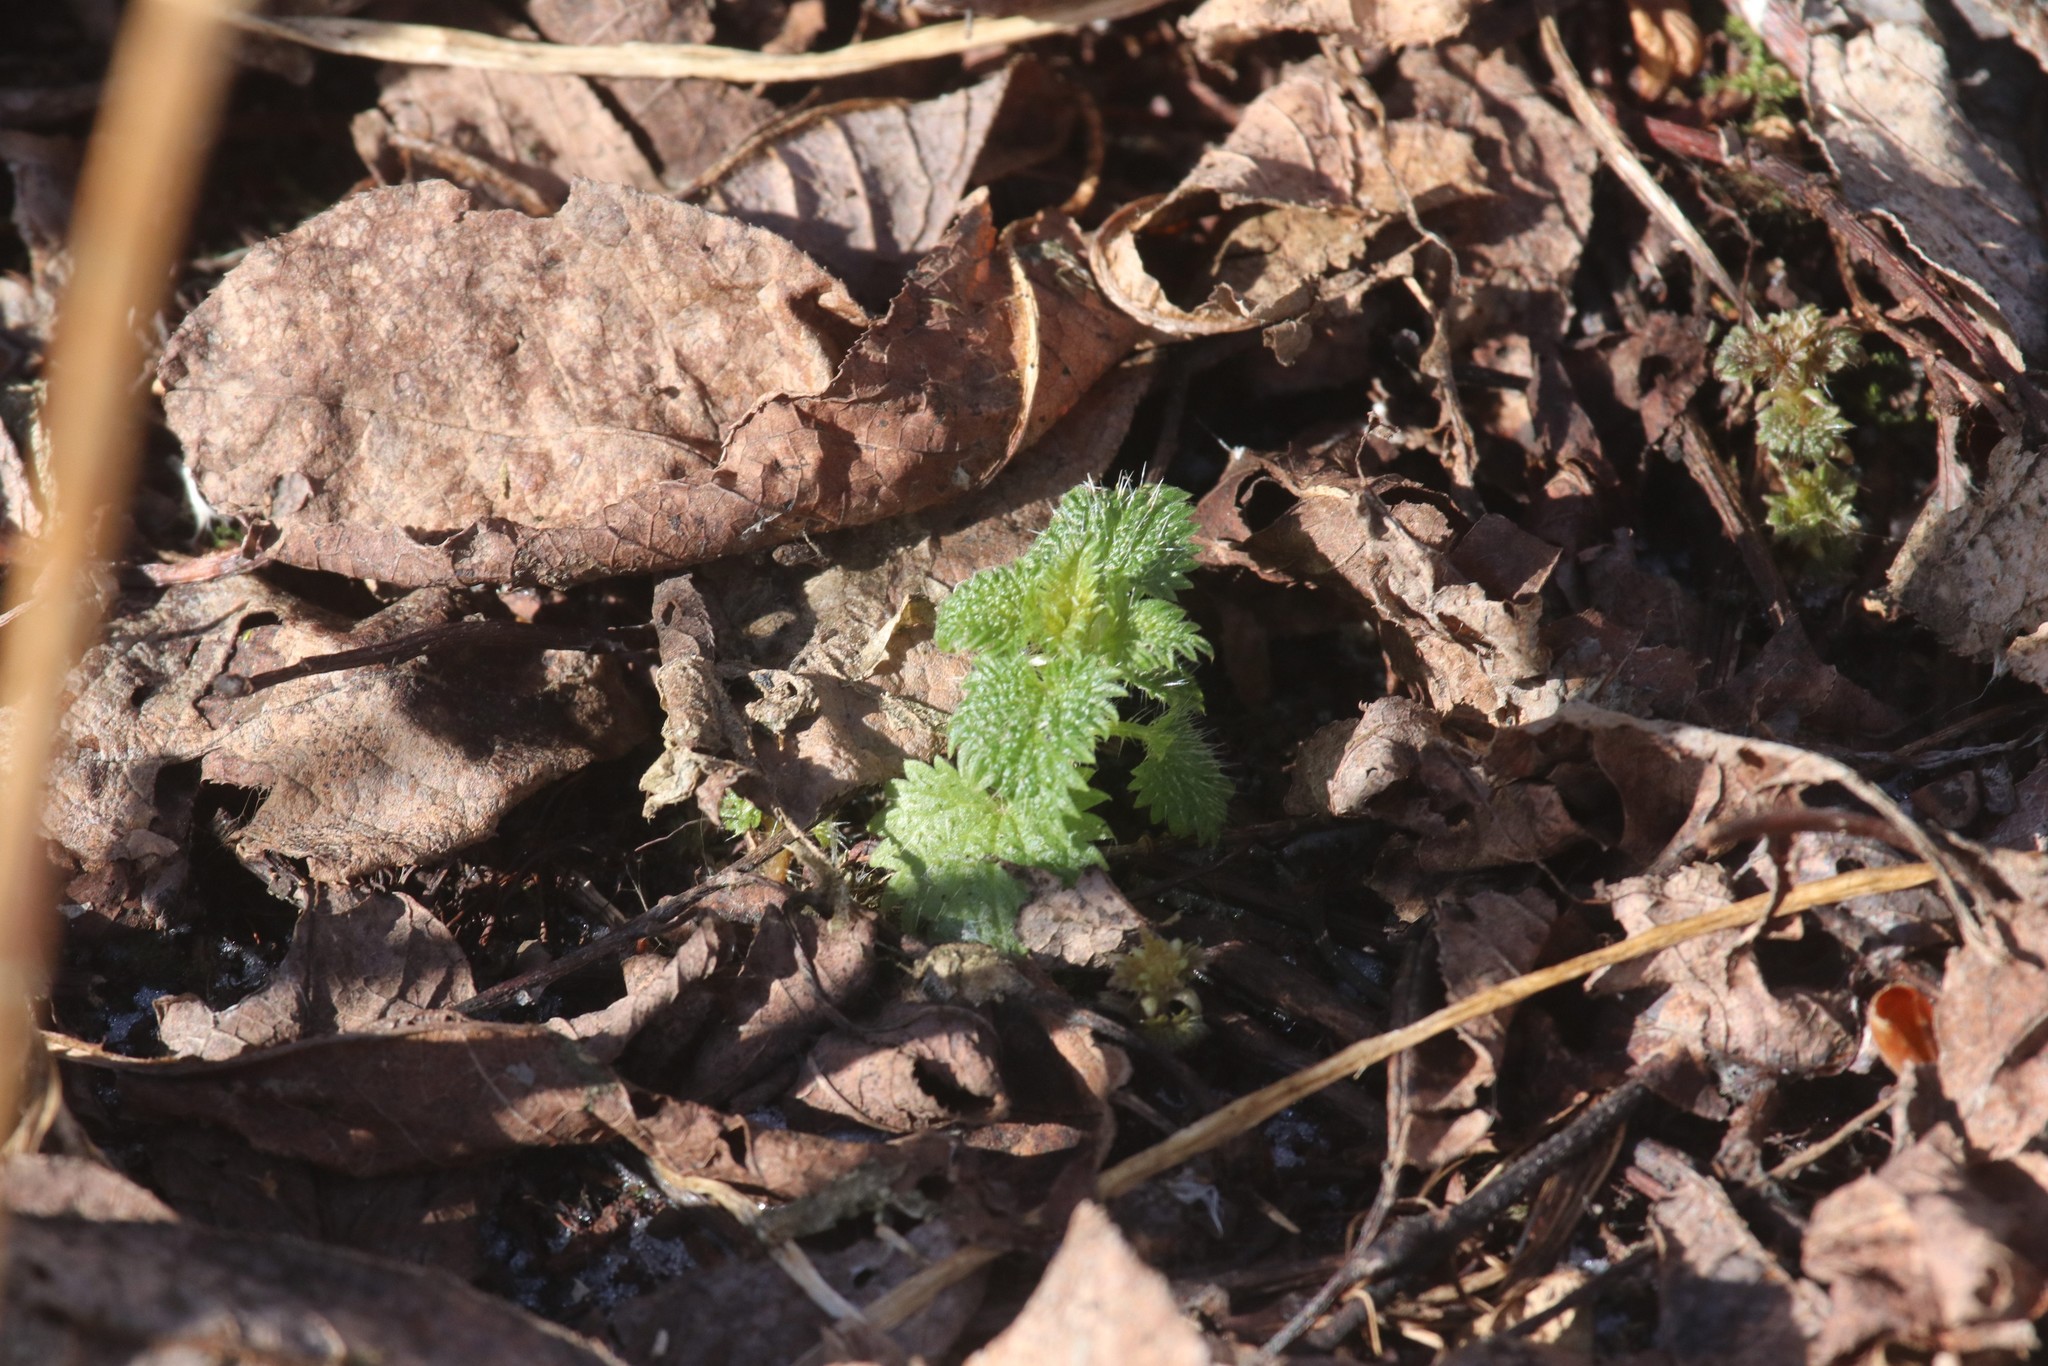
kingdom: Plantae
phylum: Tracheophyta
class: Magnoliopsida
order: Rosales
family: Urticaceae
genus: Urtica
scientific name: Urtica dioica
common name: Common nettle
